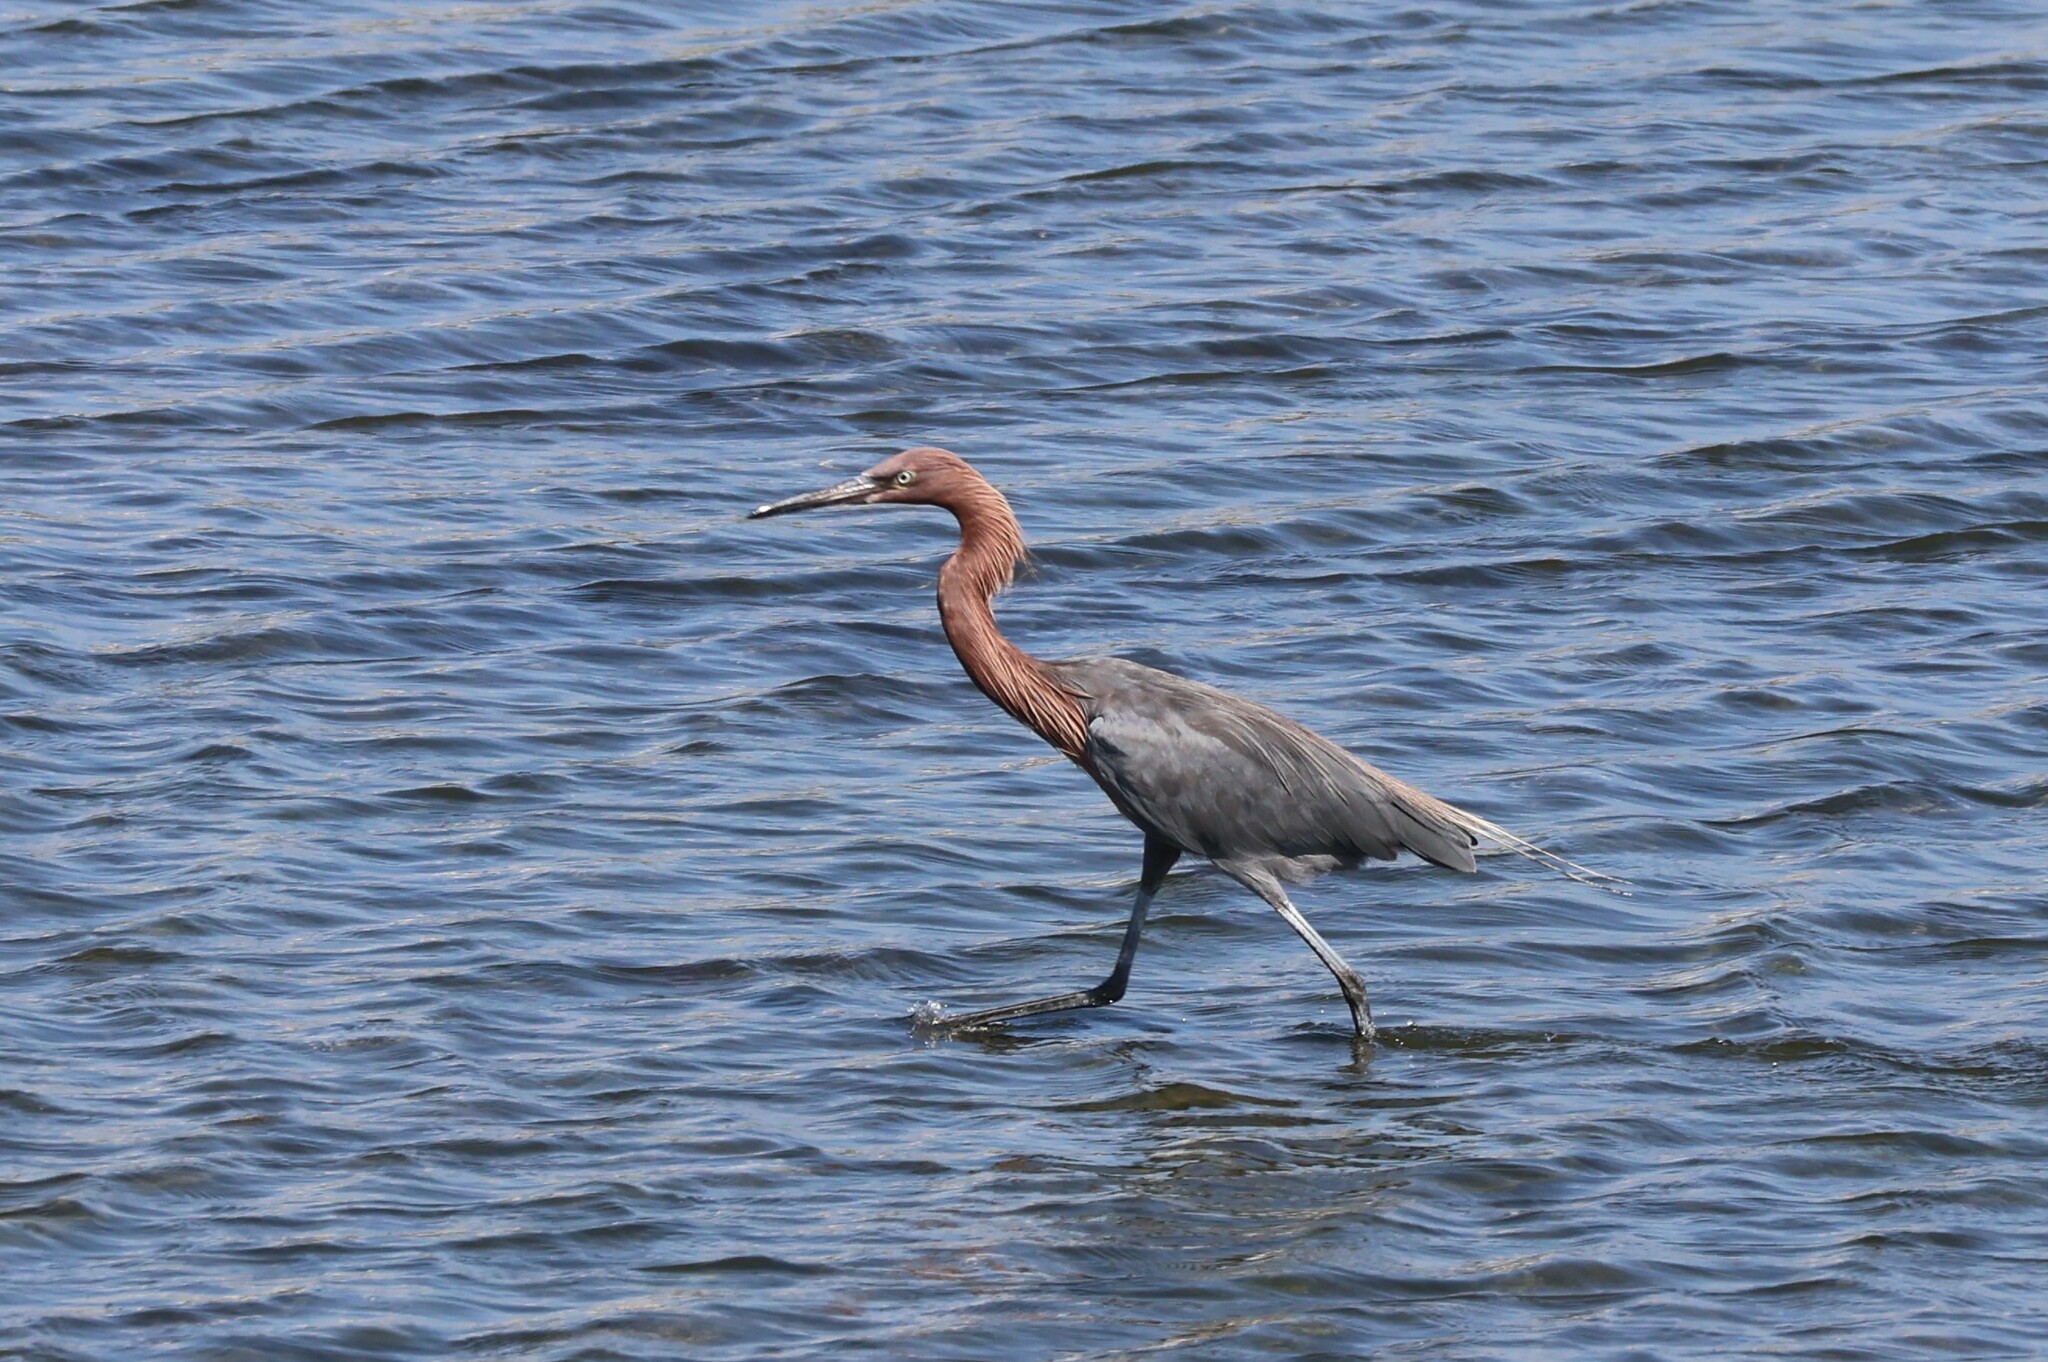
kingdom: Animalia
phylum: Chordata
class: Aves
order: Pelecaniformes
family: Ardeidae
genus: Egretta
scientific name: Egretta rufescens
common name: Reddish egret
